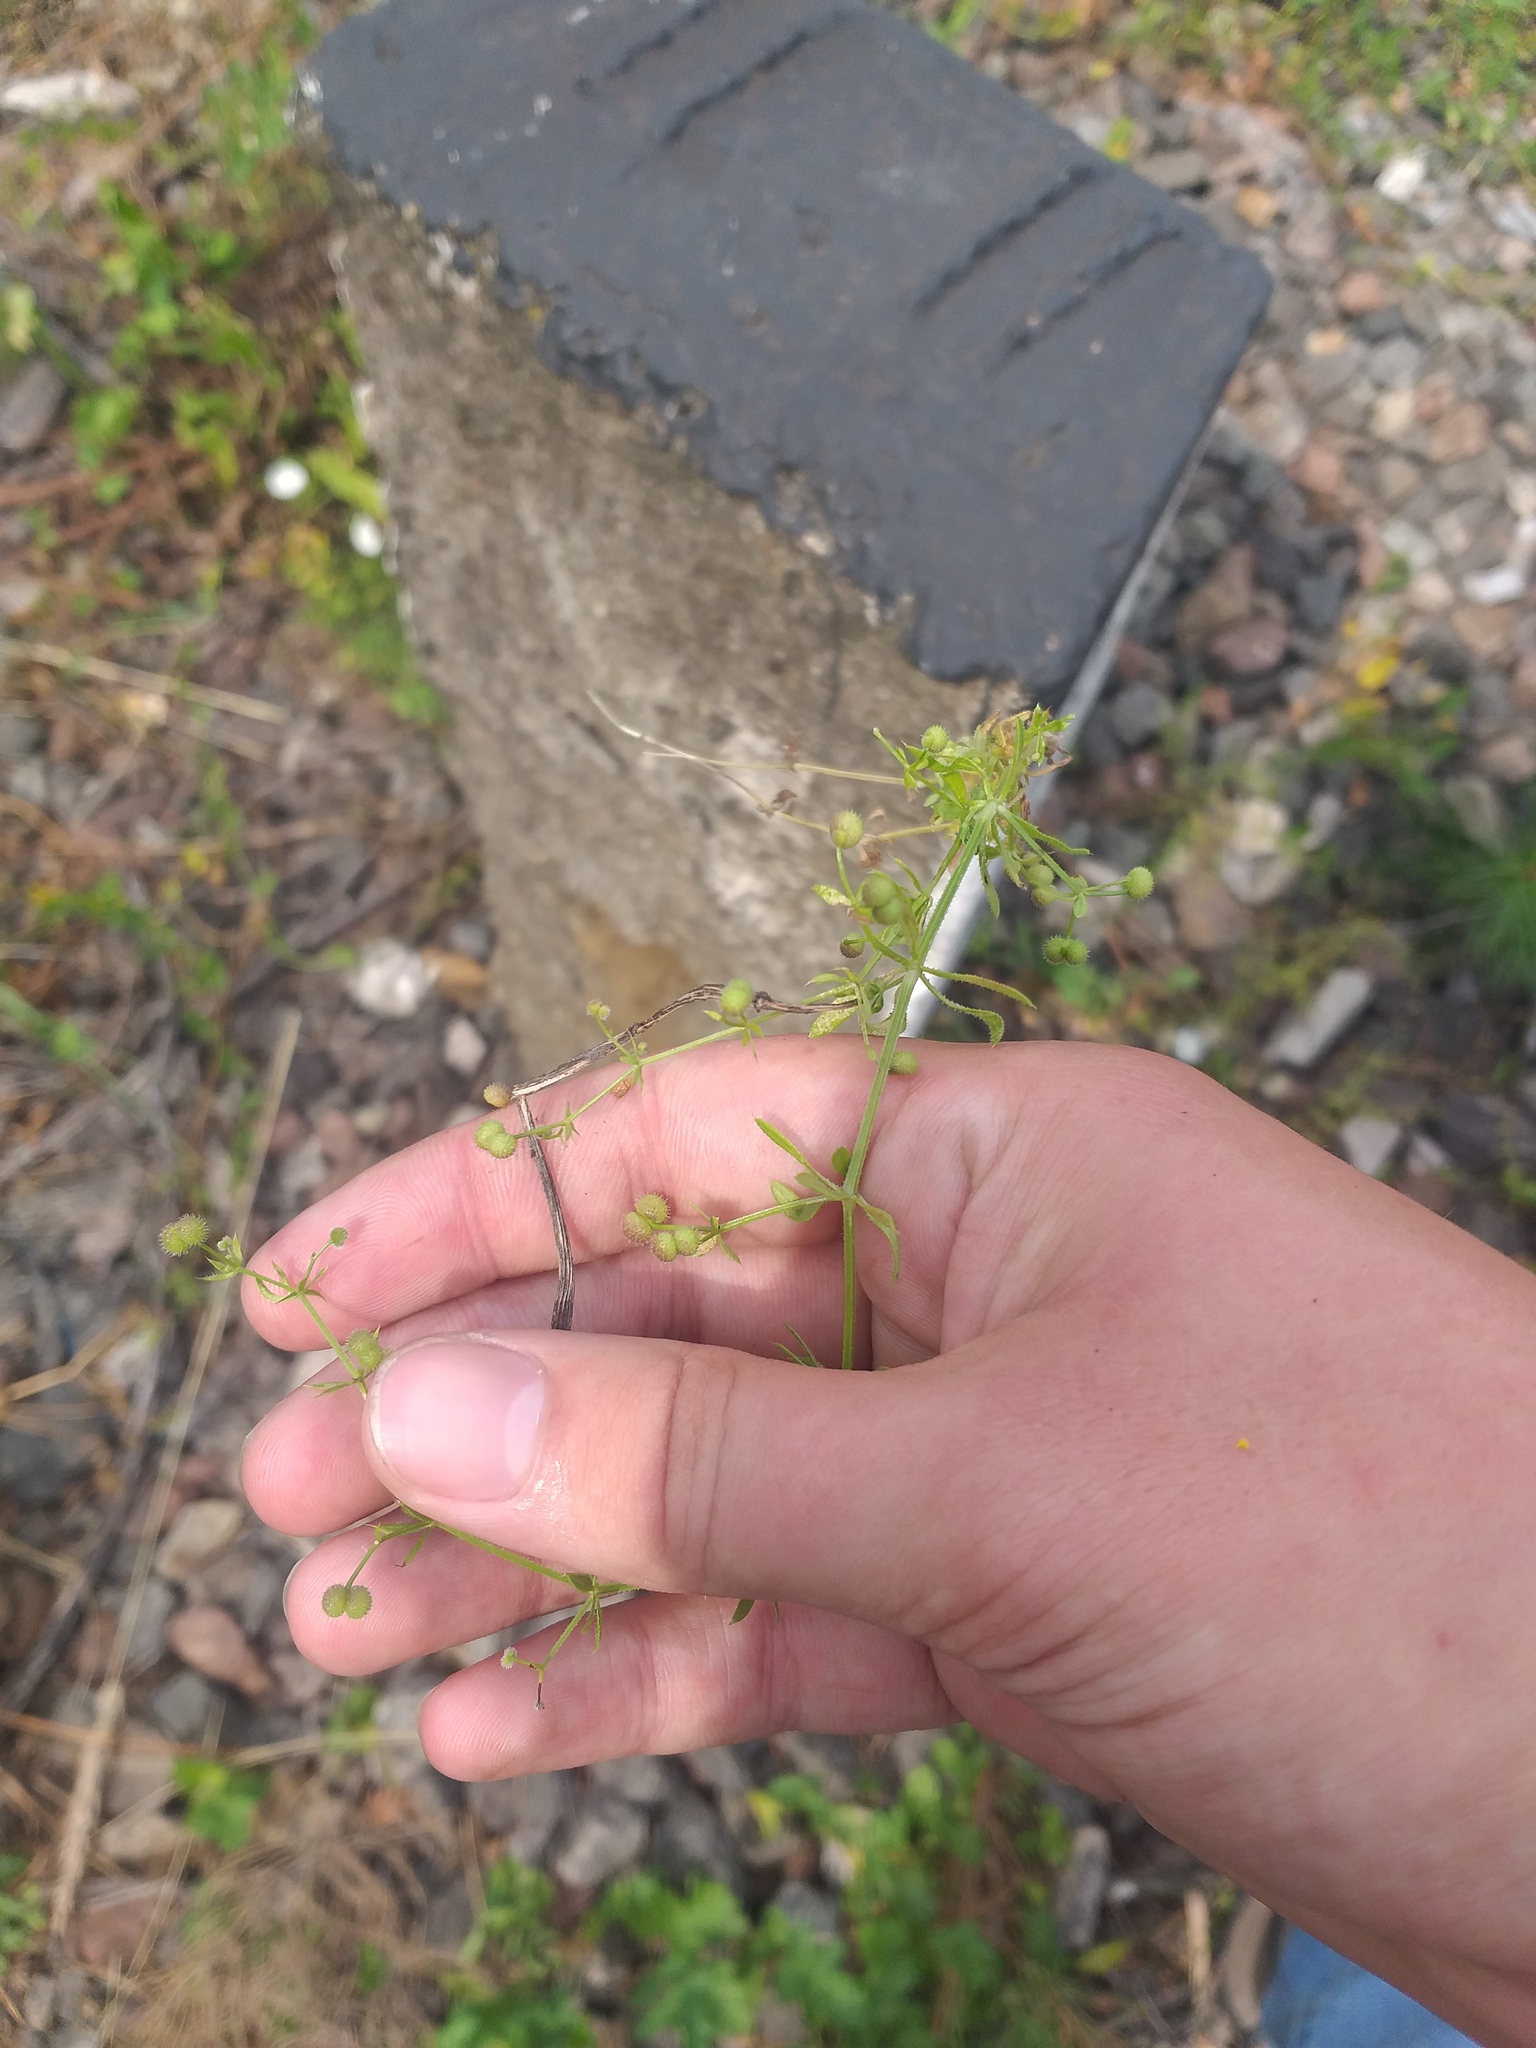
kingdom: Plantae
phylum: Tracheophyta
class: Magnoliopsida
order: Gentianales
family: Rubiaceae
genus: Galium
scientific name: Galium
